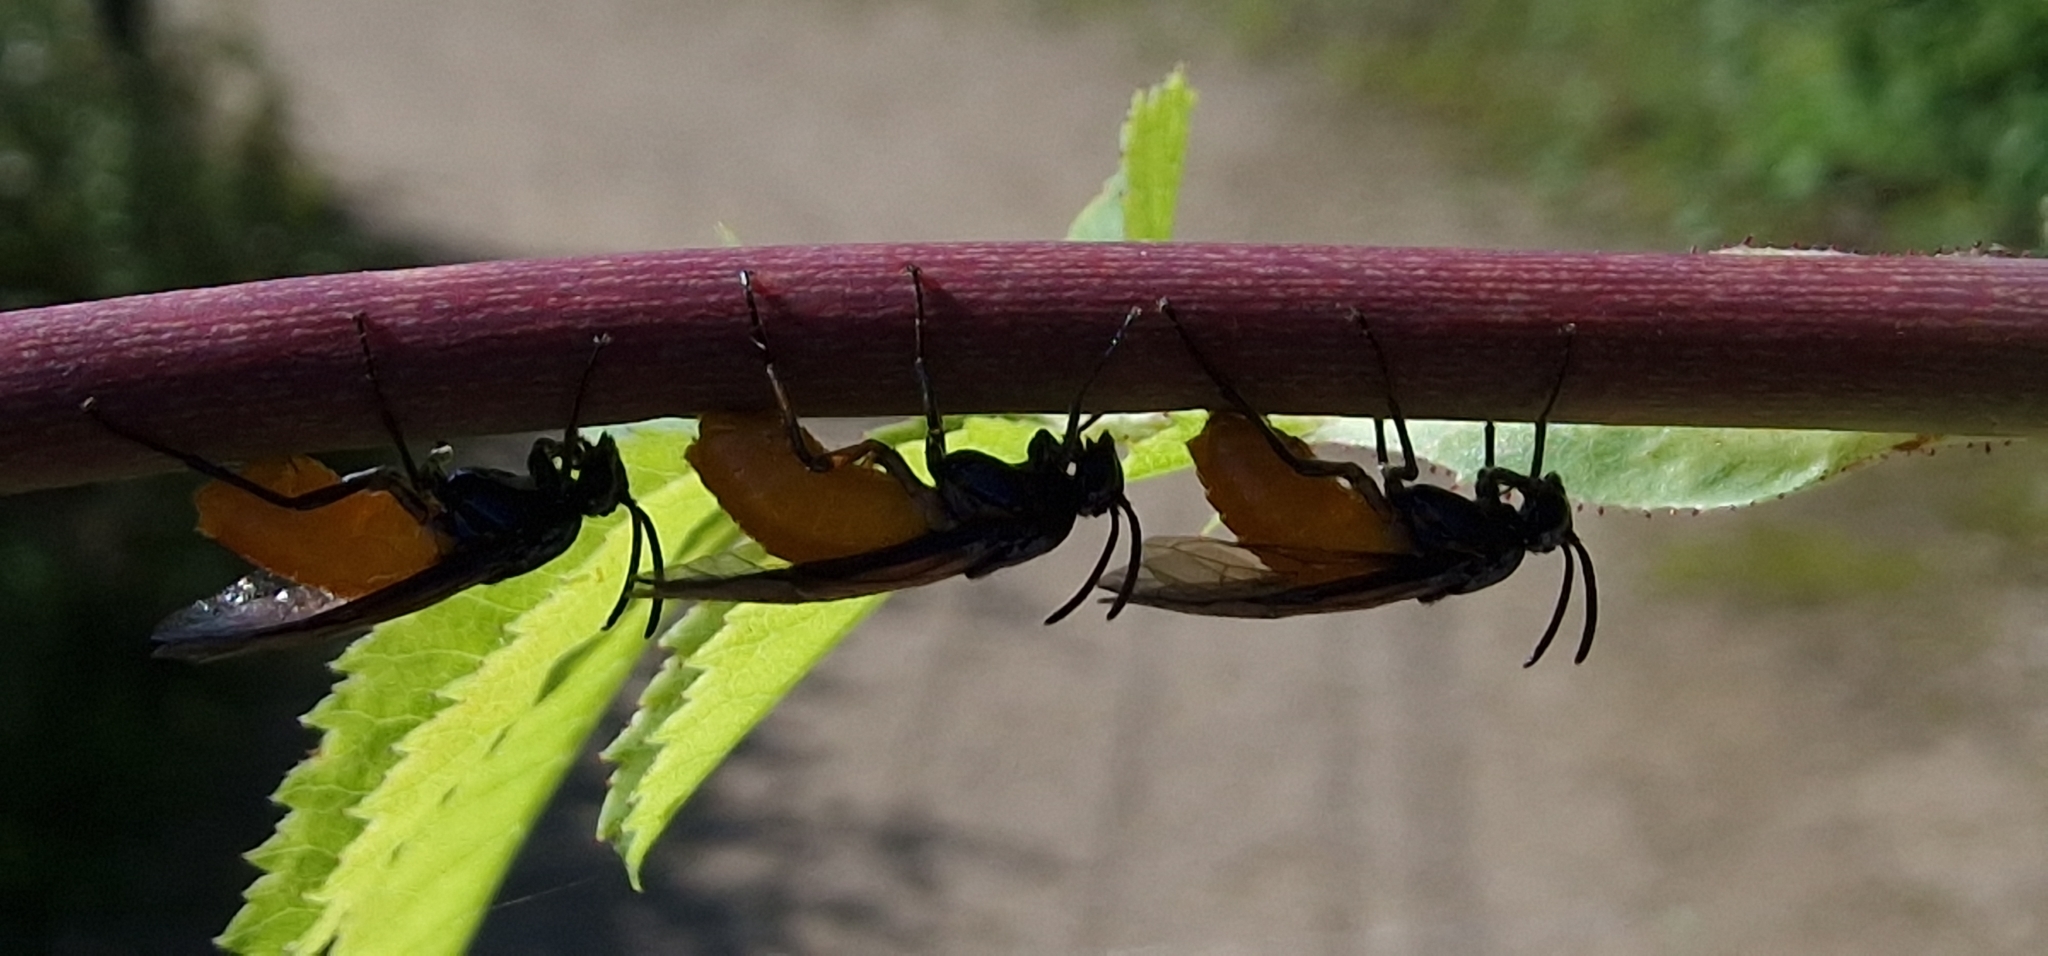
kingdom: Animalia
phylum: Arthropoda
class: Insecta
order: Hymenoptera
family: Argidae
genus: Arge
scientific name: Arge pagana
